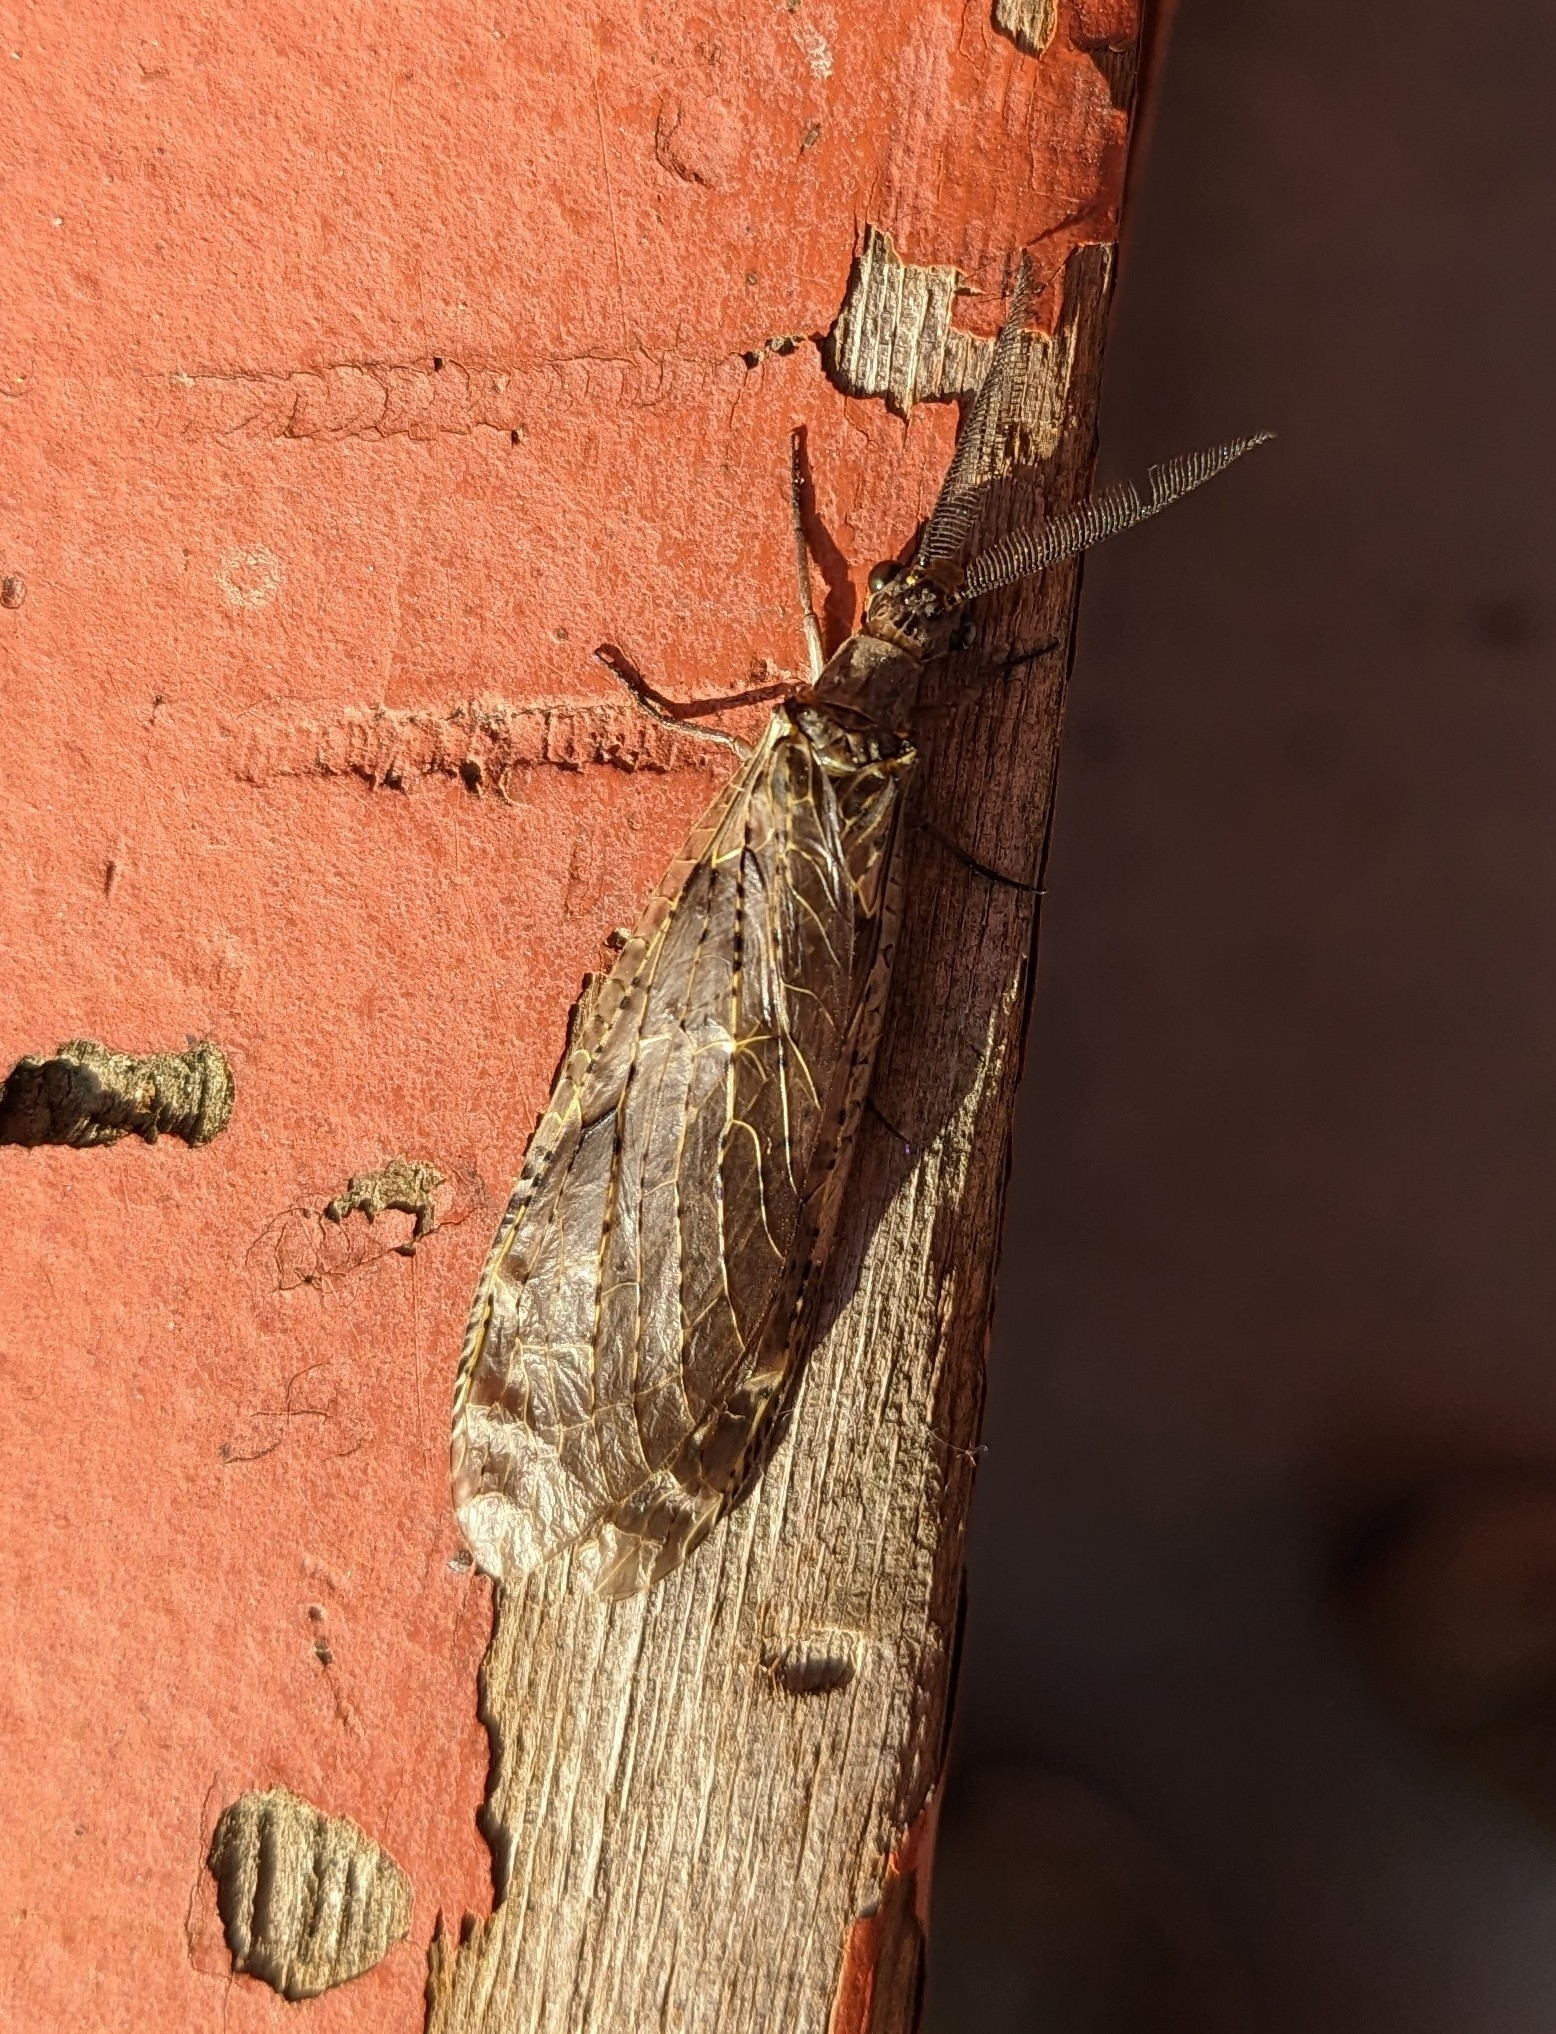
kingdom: Animalia
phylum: Arthropoda
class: Insecta
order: Megaloptera
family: Corydalidae
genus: Chauliodes
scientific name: Chauliodes rastricornis
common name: Spring fishfly
